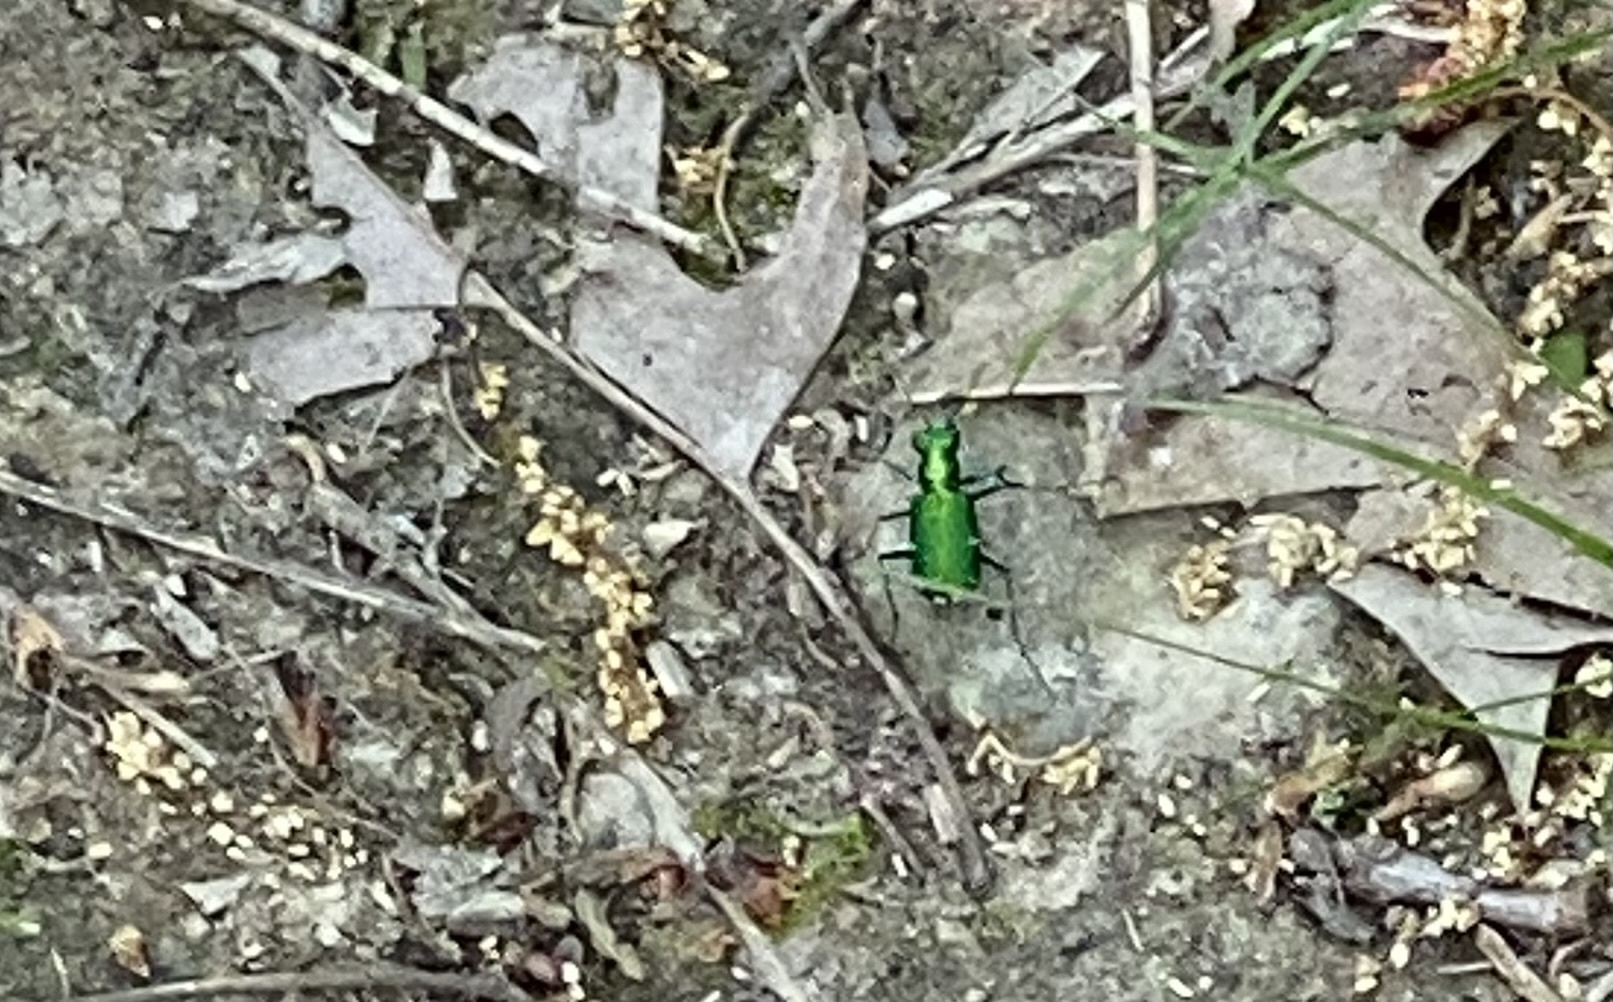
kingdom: Animalia
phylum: Arthropoda
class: Insecta
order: Coleoptera
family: Carabidae
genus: Cicindela
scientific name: Cicindela sexguttata
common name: Six-spotted tiger beetle
